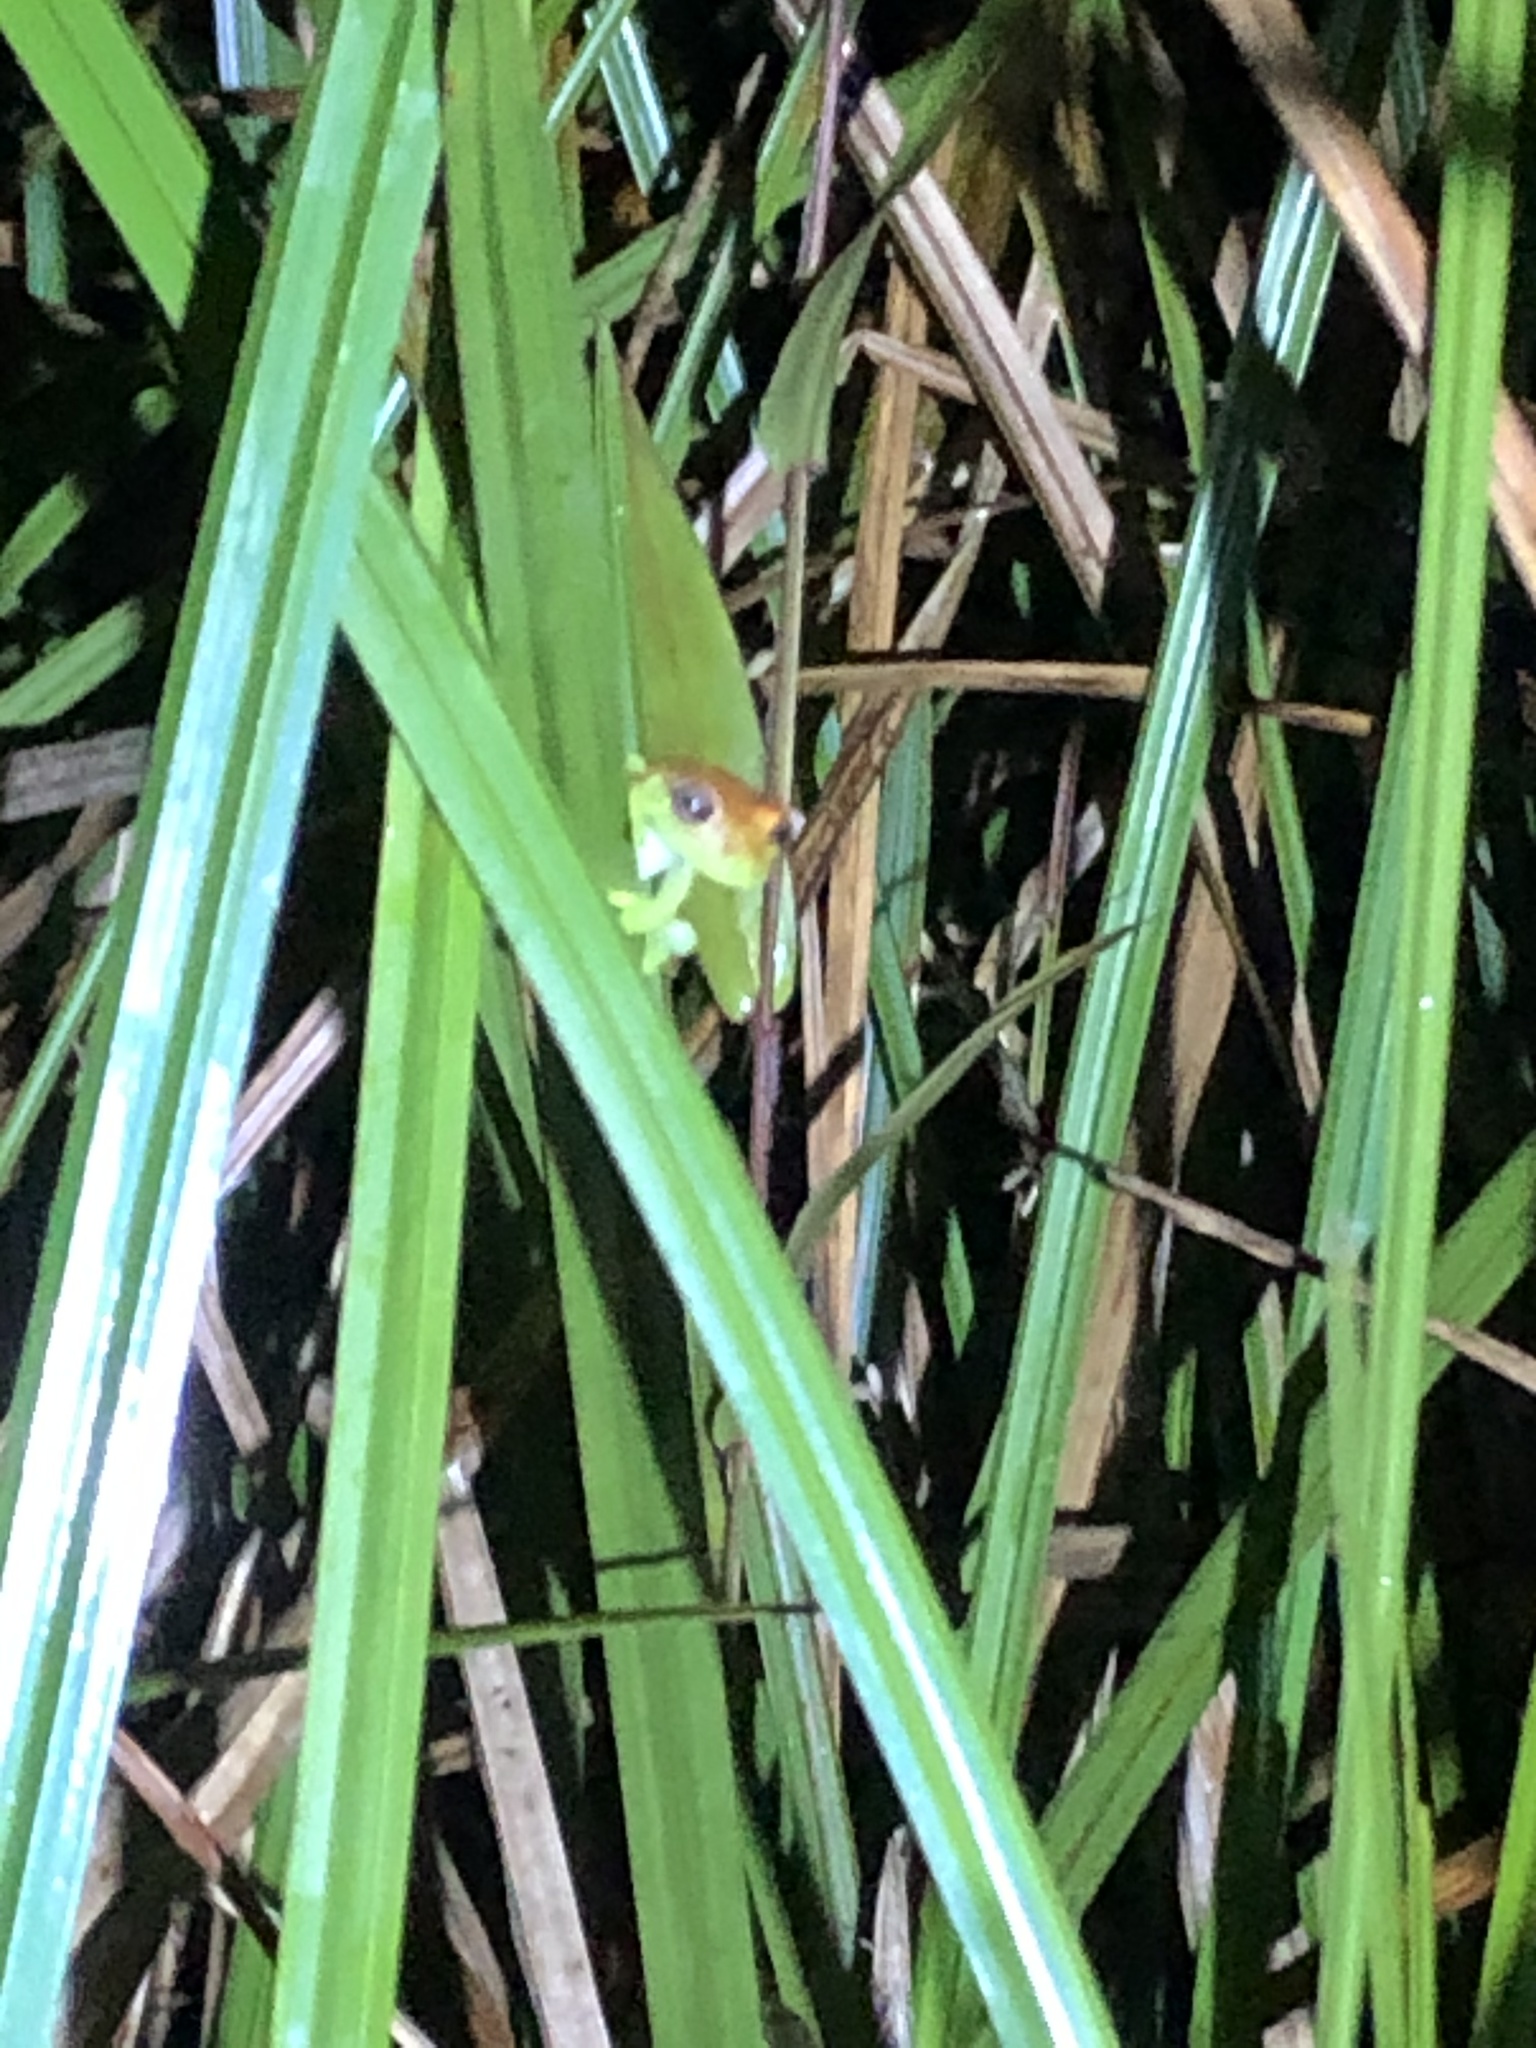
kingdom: Animalia
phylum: Chordata
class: Amphibia
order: Anura
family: Hylidae
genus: Boana
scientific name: Boana punctata
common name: Polka-dot treefrog
